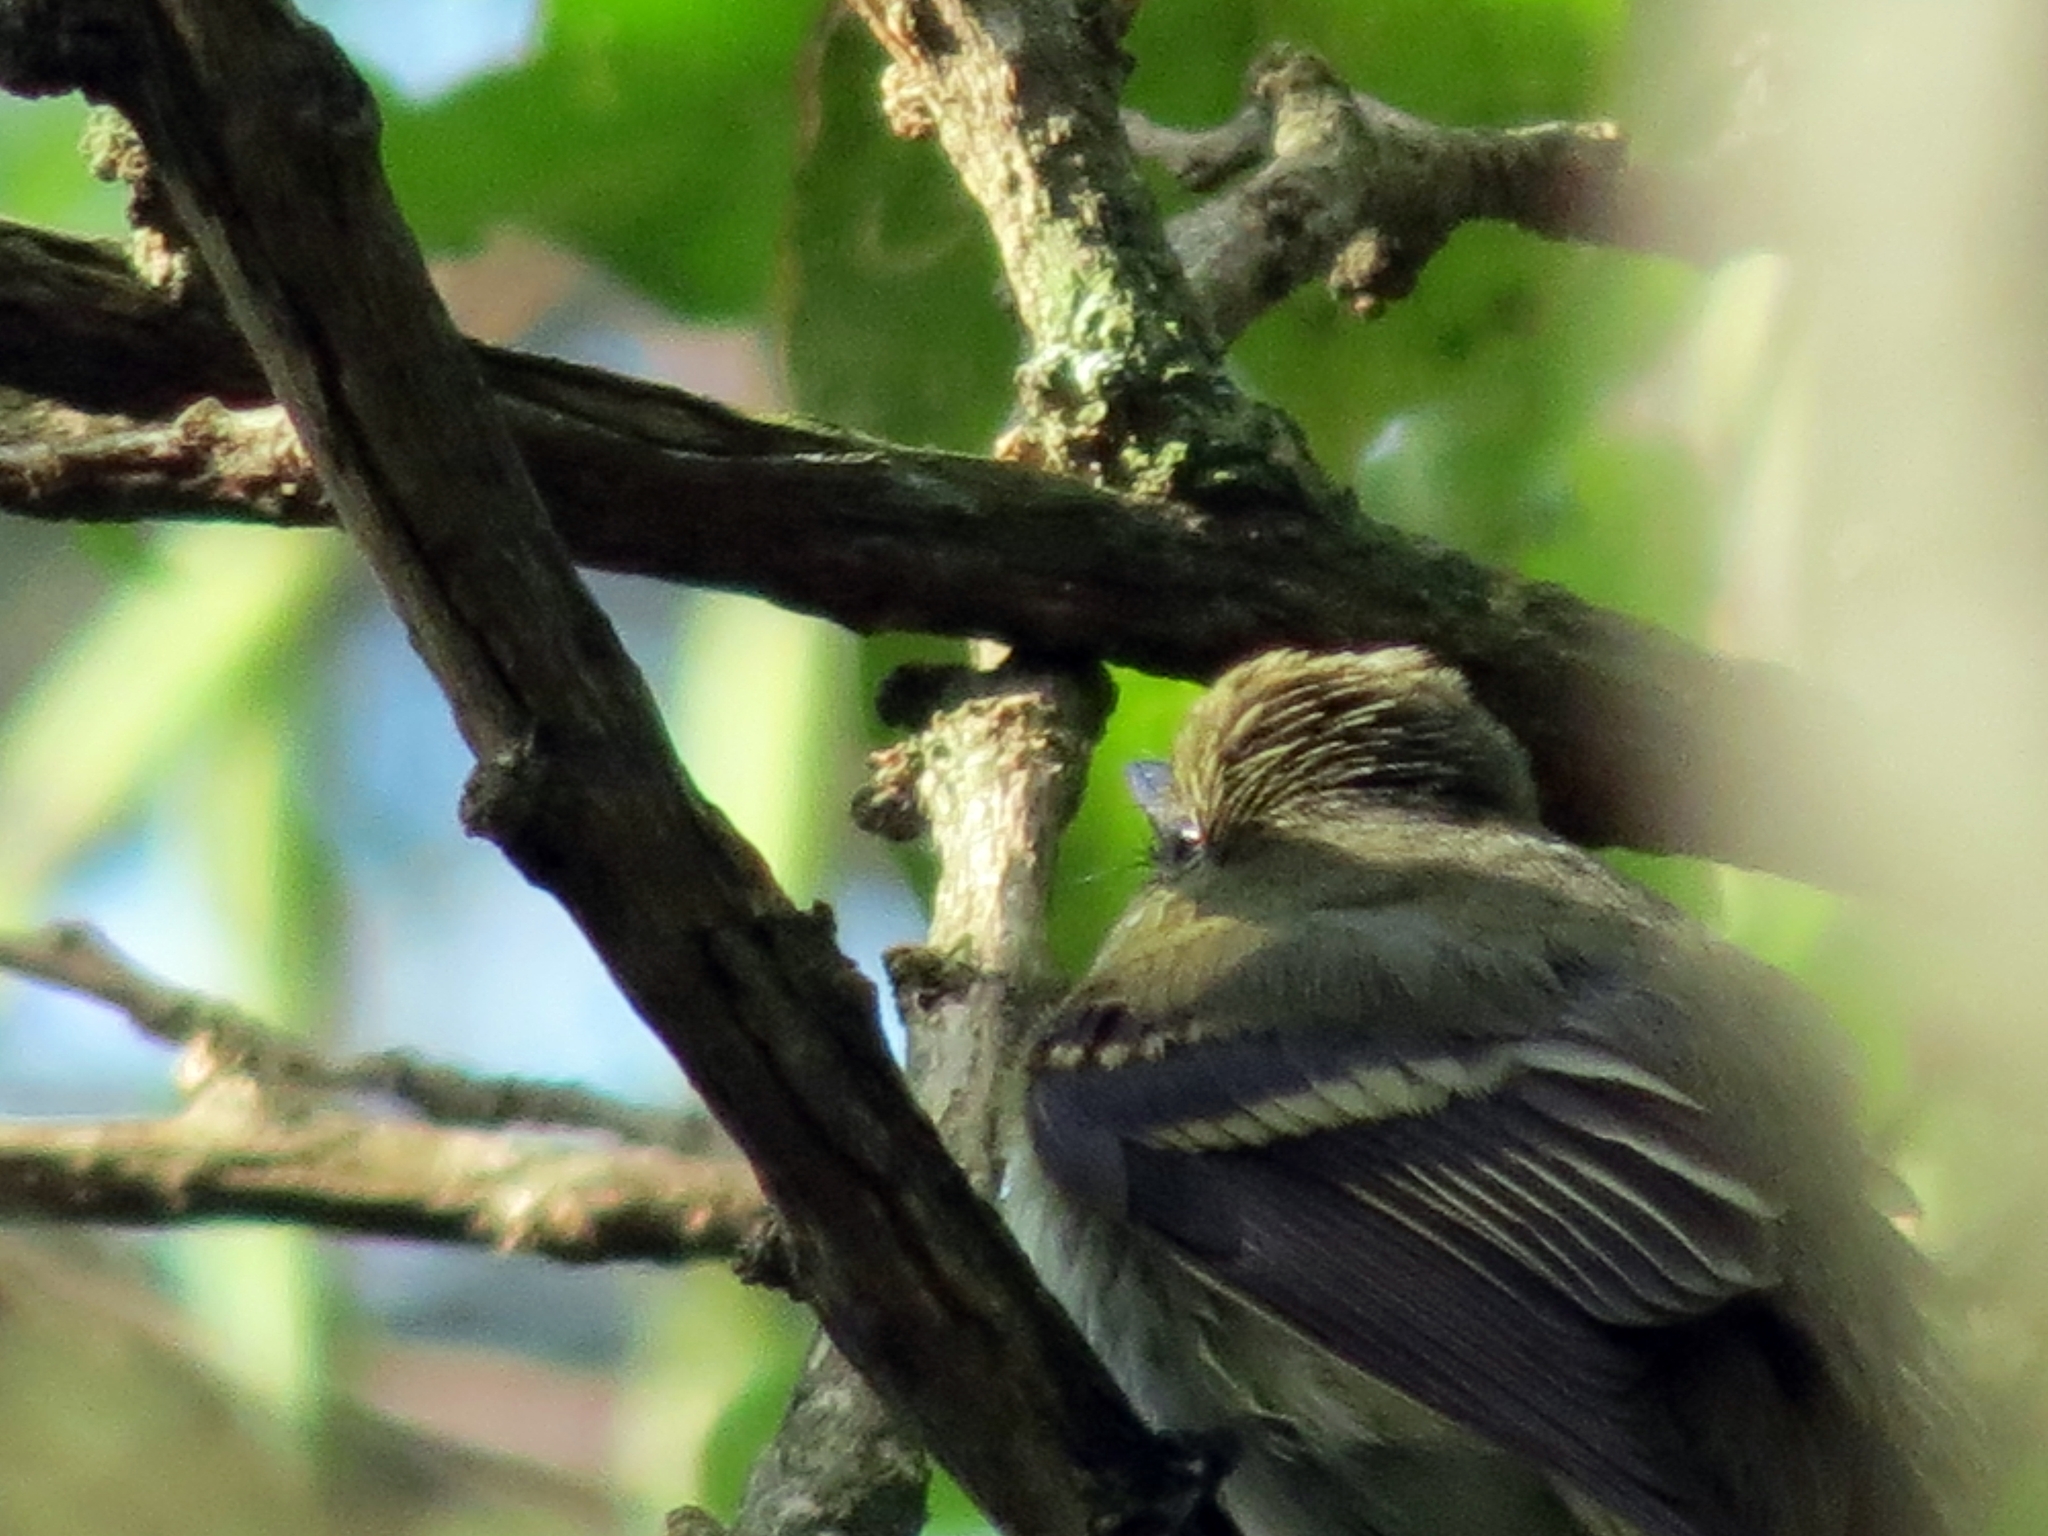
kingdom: Animalia
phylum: Chordata
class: Aves
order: Passeriformes
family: Tyrannidae
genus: Empidonax
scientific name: Empidonax virescens
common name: Acadian flycatcher
